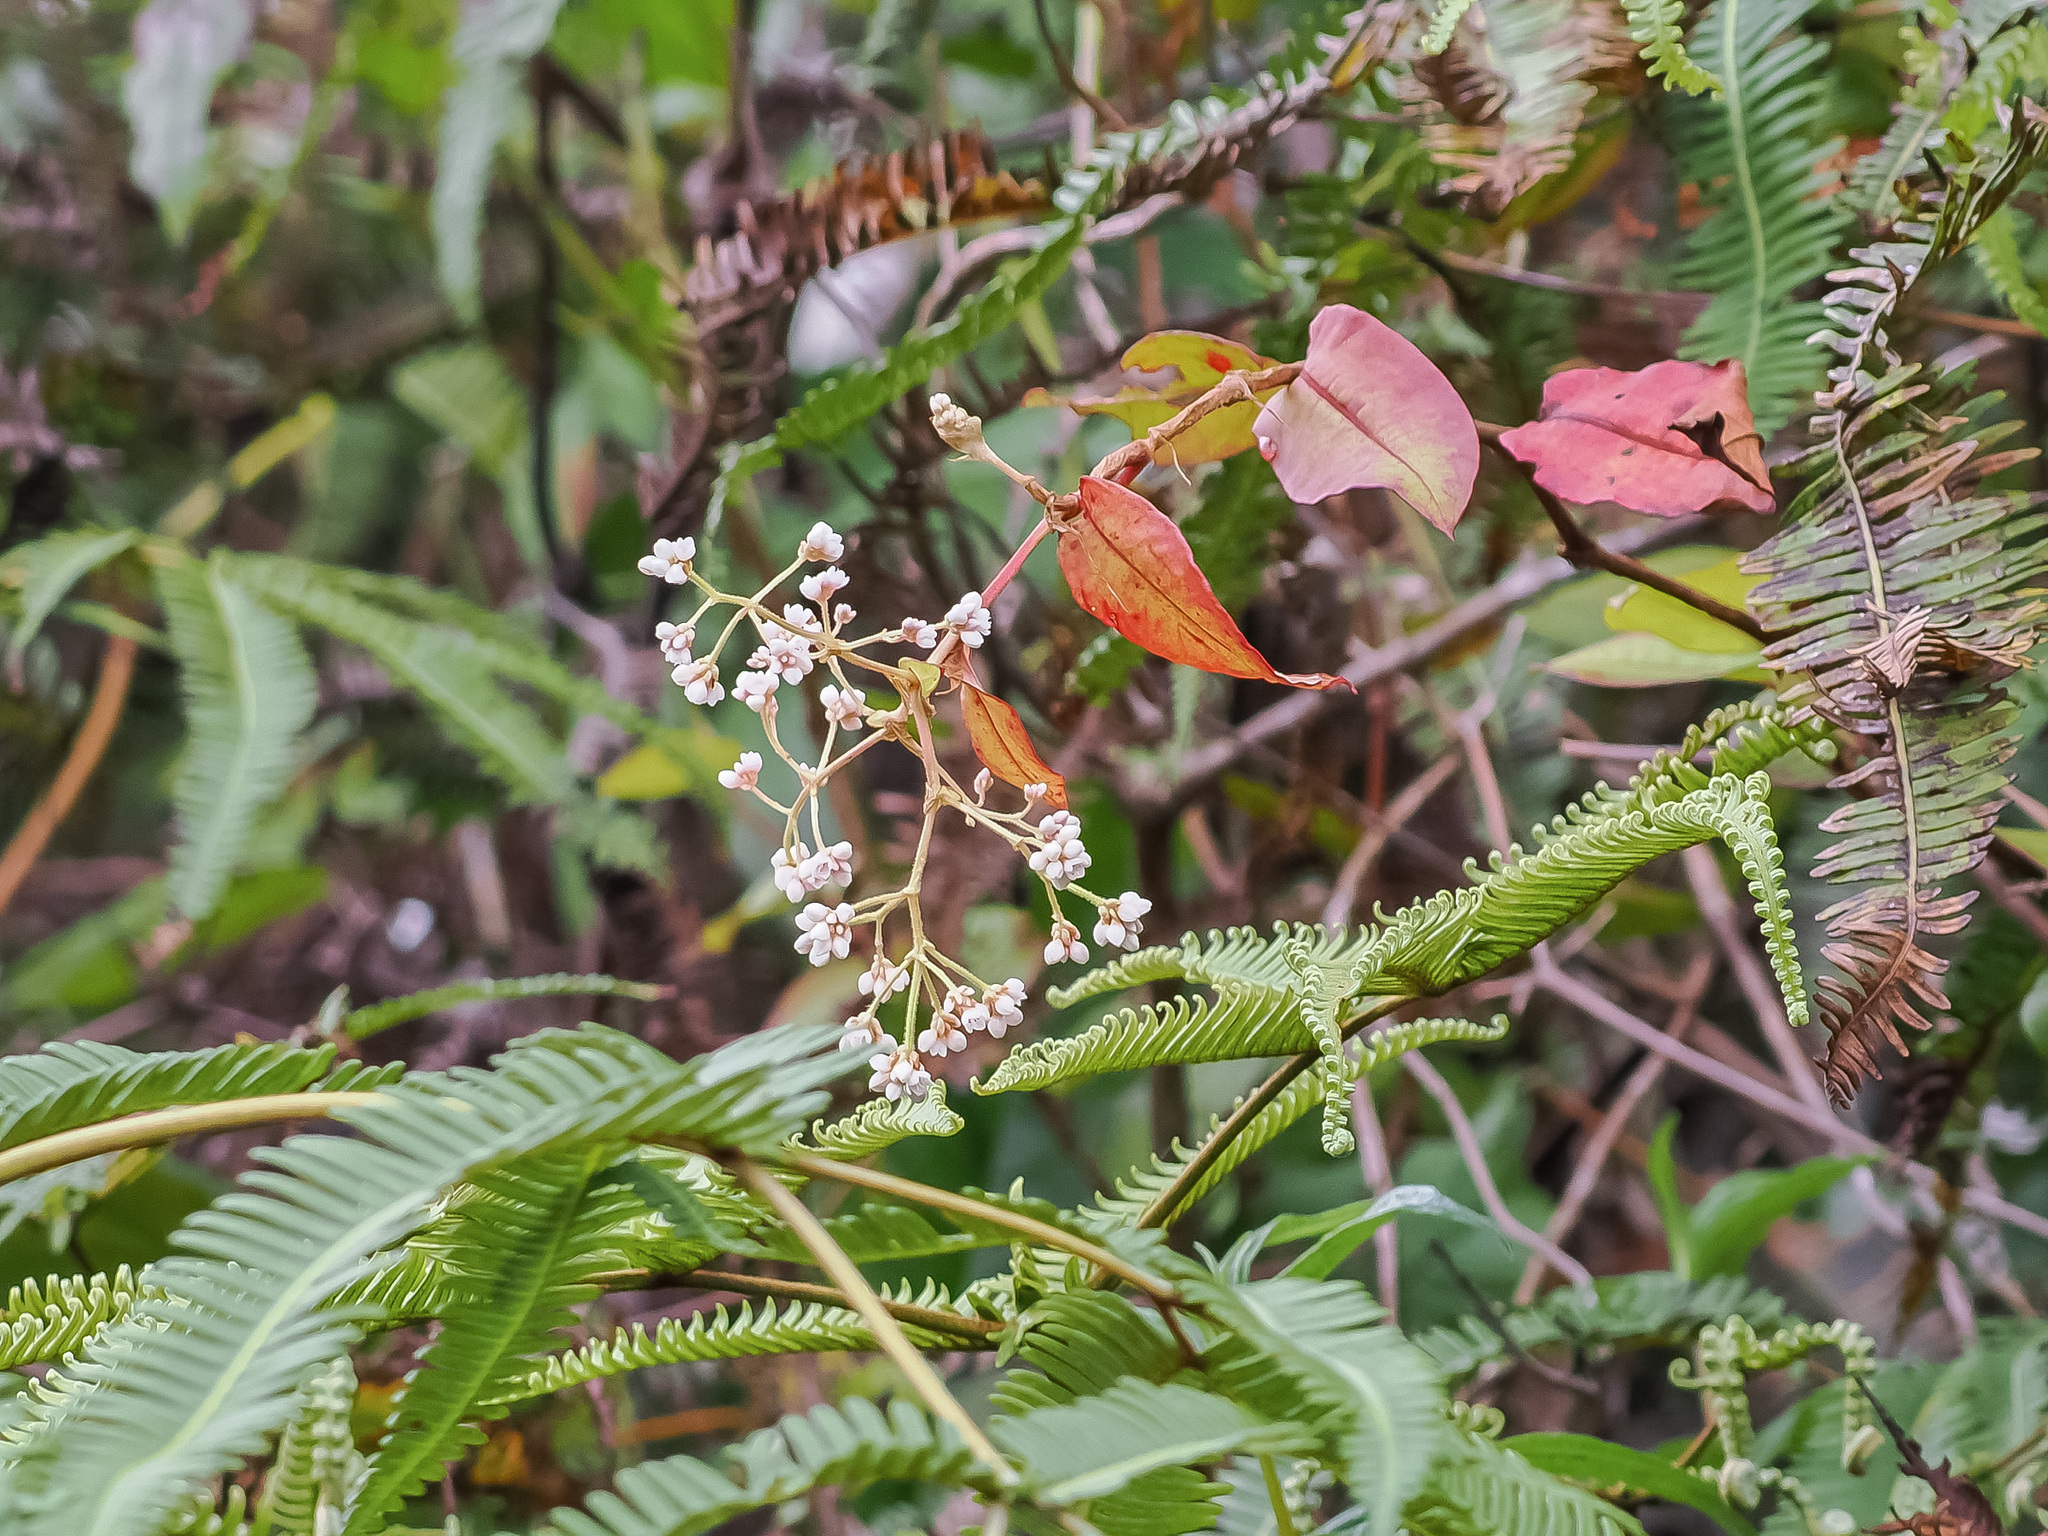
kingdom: Plantae
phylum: Tracheophyta
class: Magnoliopsida
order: Caryophyllales
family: Polygonaceae
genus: Persicaria
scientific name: Persicaria chinensis
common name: Chinese knotweed
